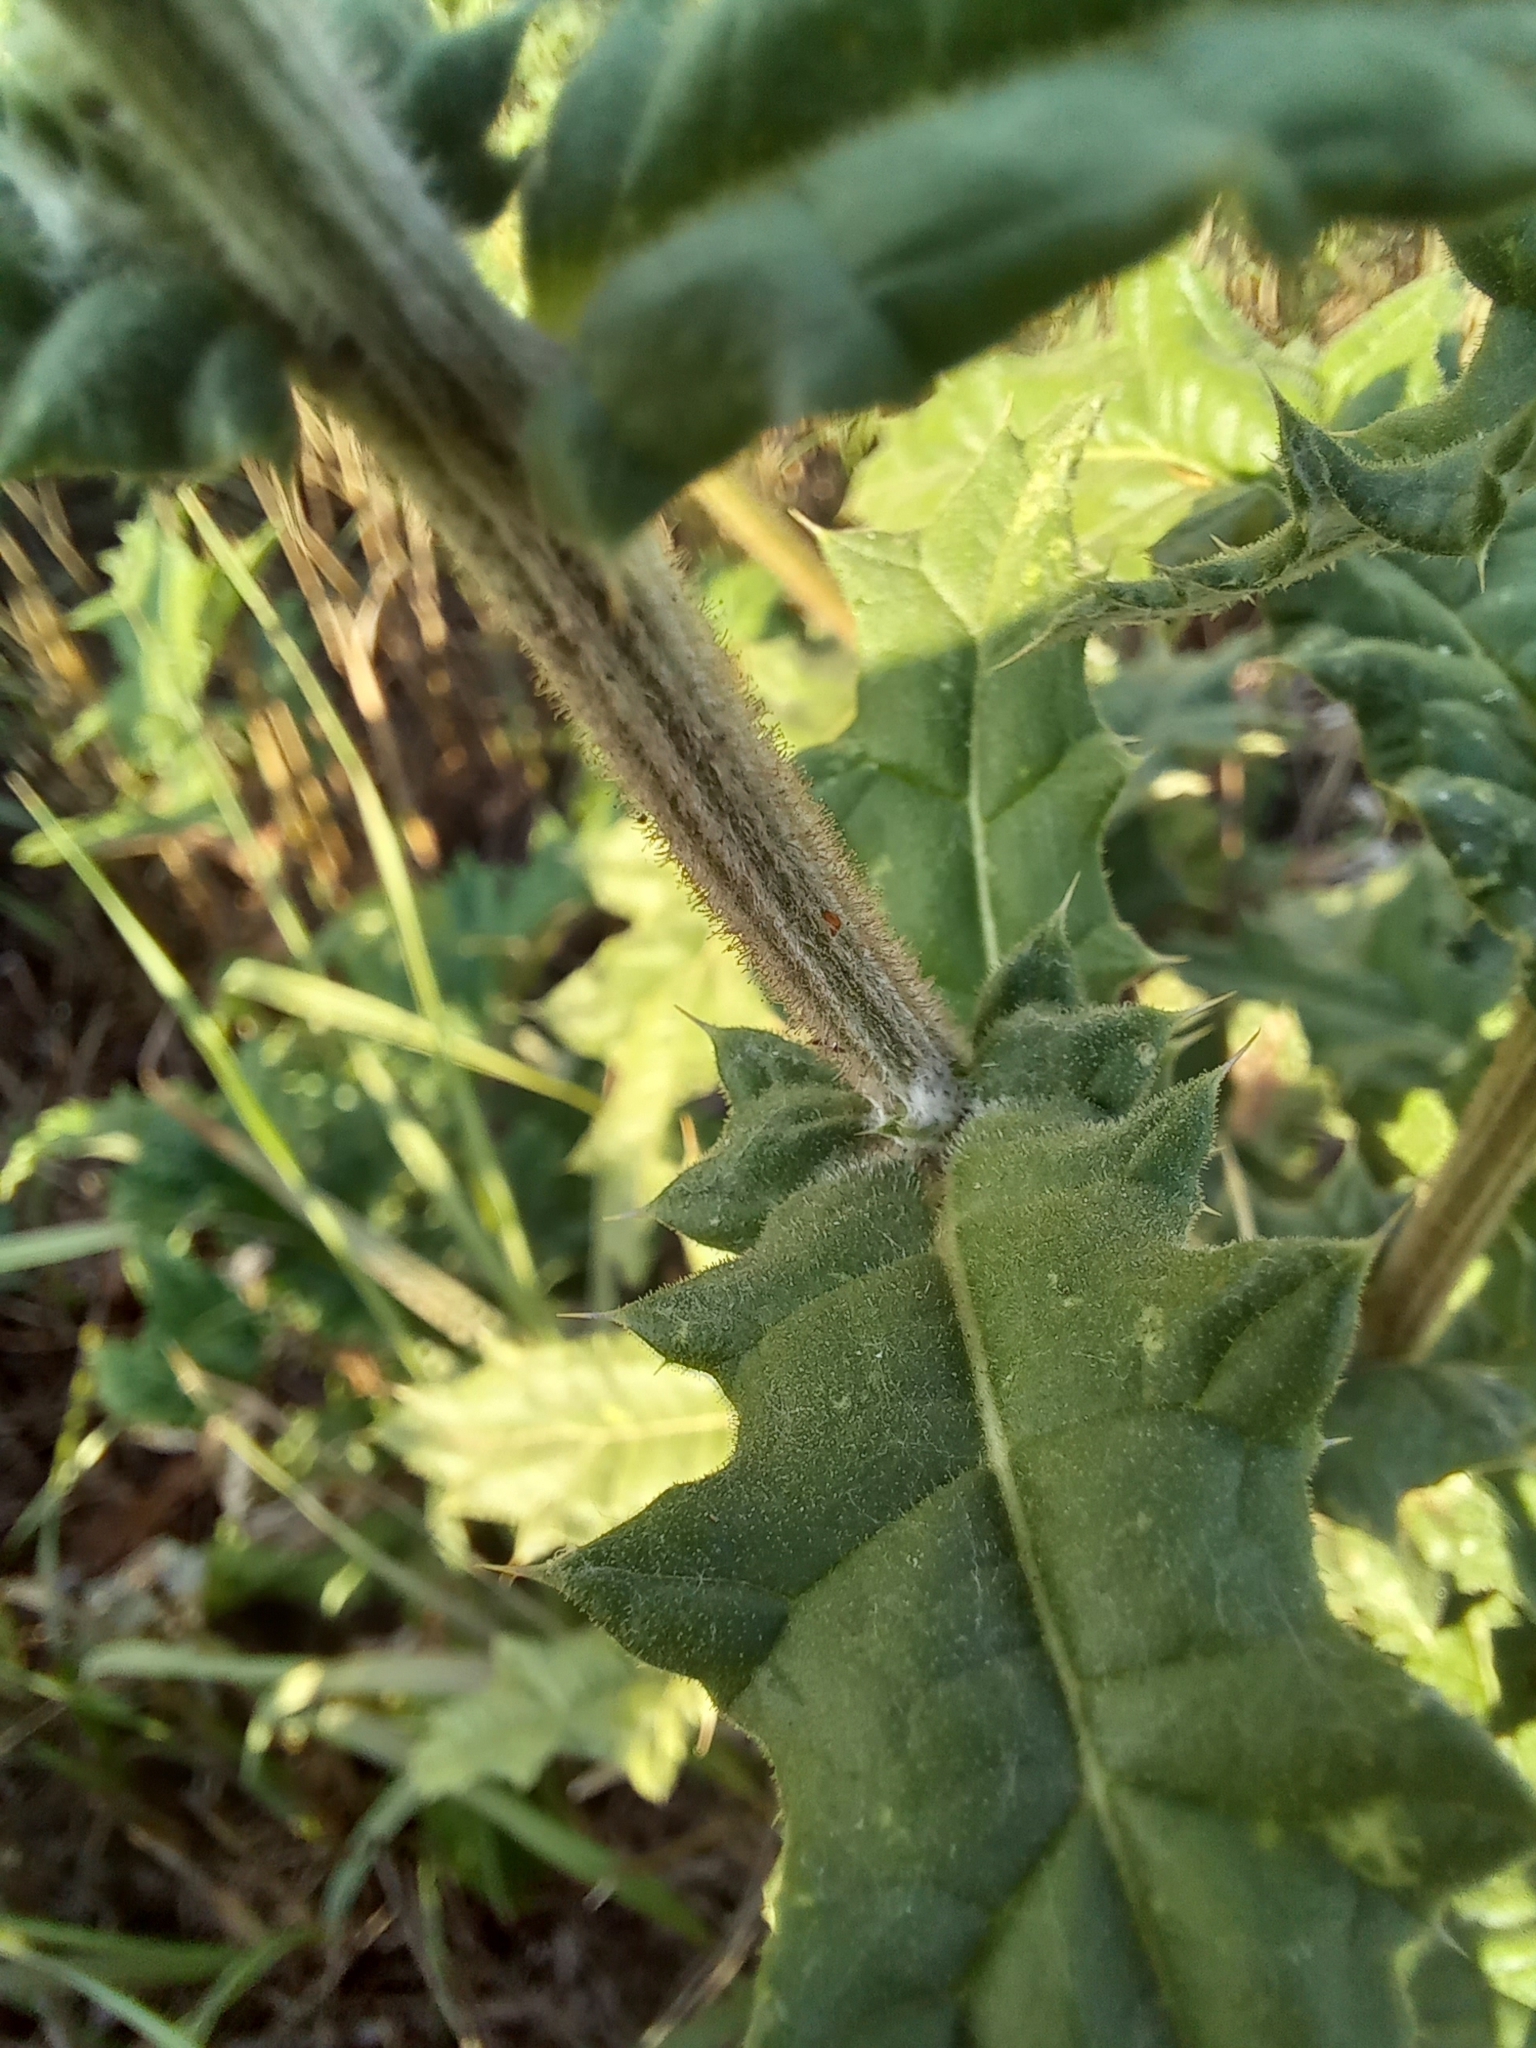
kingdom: Plantae
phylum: Tracheophyta
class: Magnoliopsida
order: Asterales
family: Asteraceae
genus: Echinops
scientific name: Echinops sphaerocephalus
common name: Glandular globe-thistle
